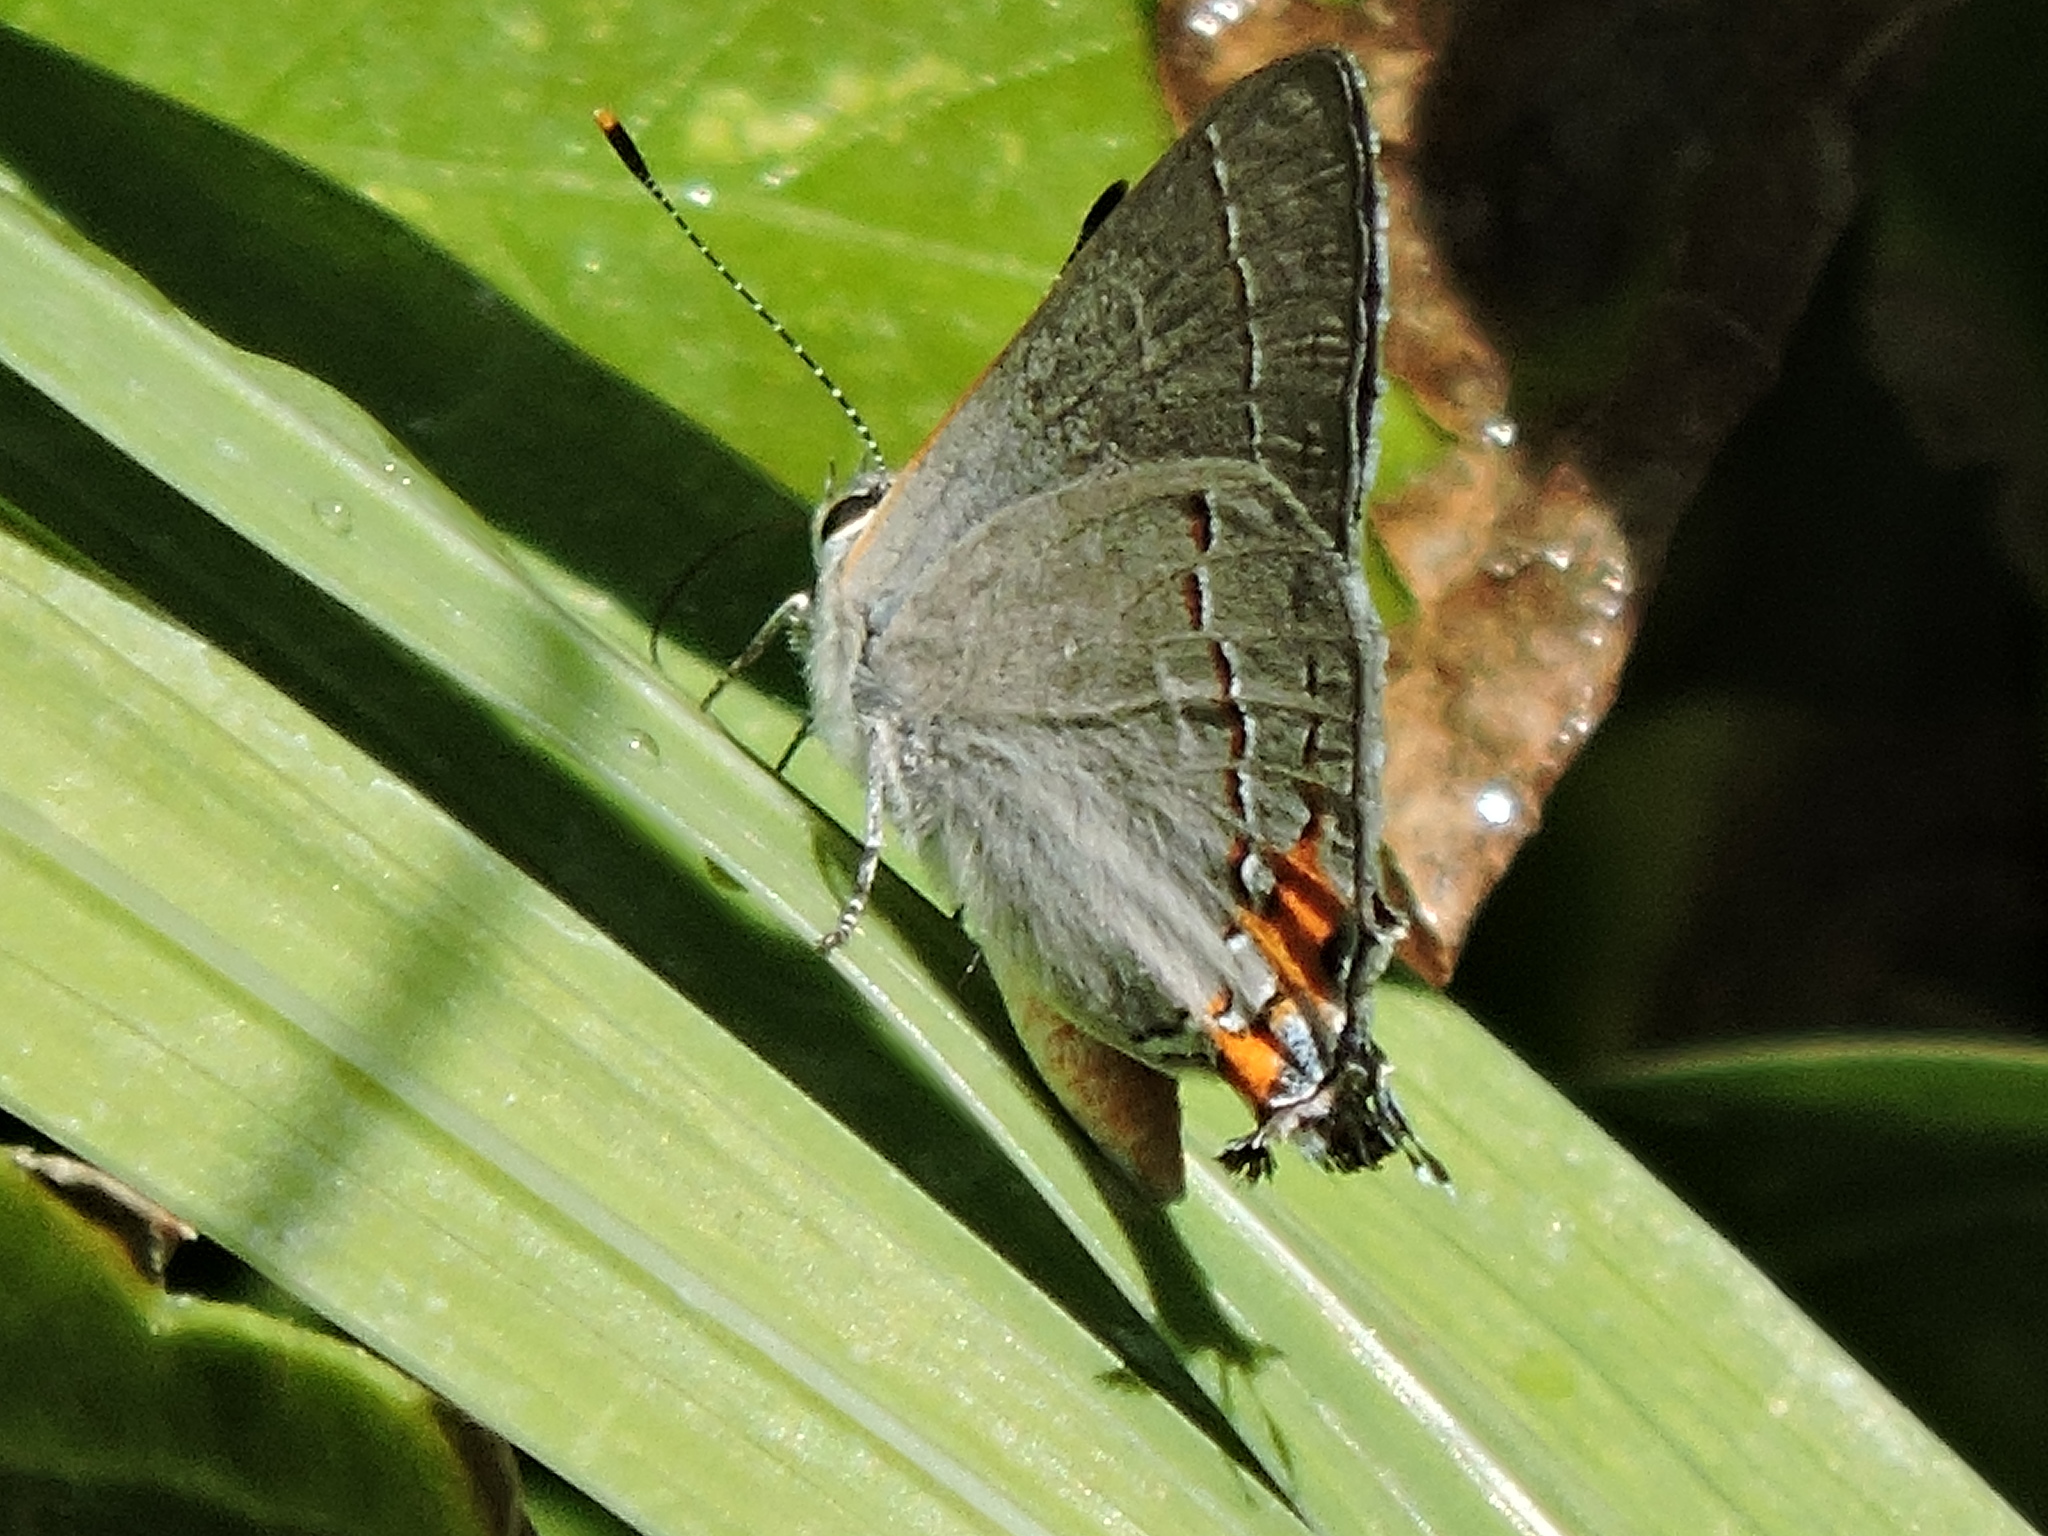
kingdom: Animalia
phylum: Arthropoda
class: Insecta
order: Lepidoptera
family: Lycaenidae
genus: Strymon
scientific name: Strymon melinus
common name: Gray hairstreak
